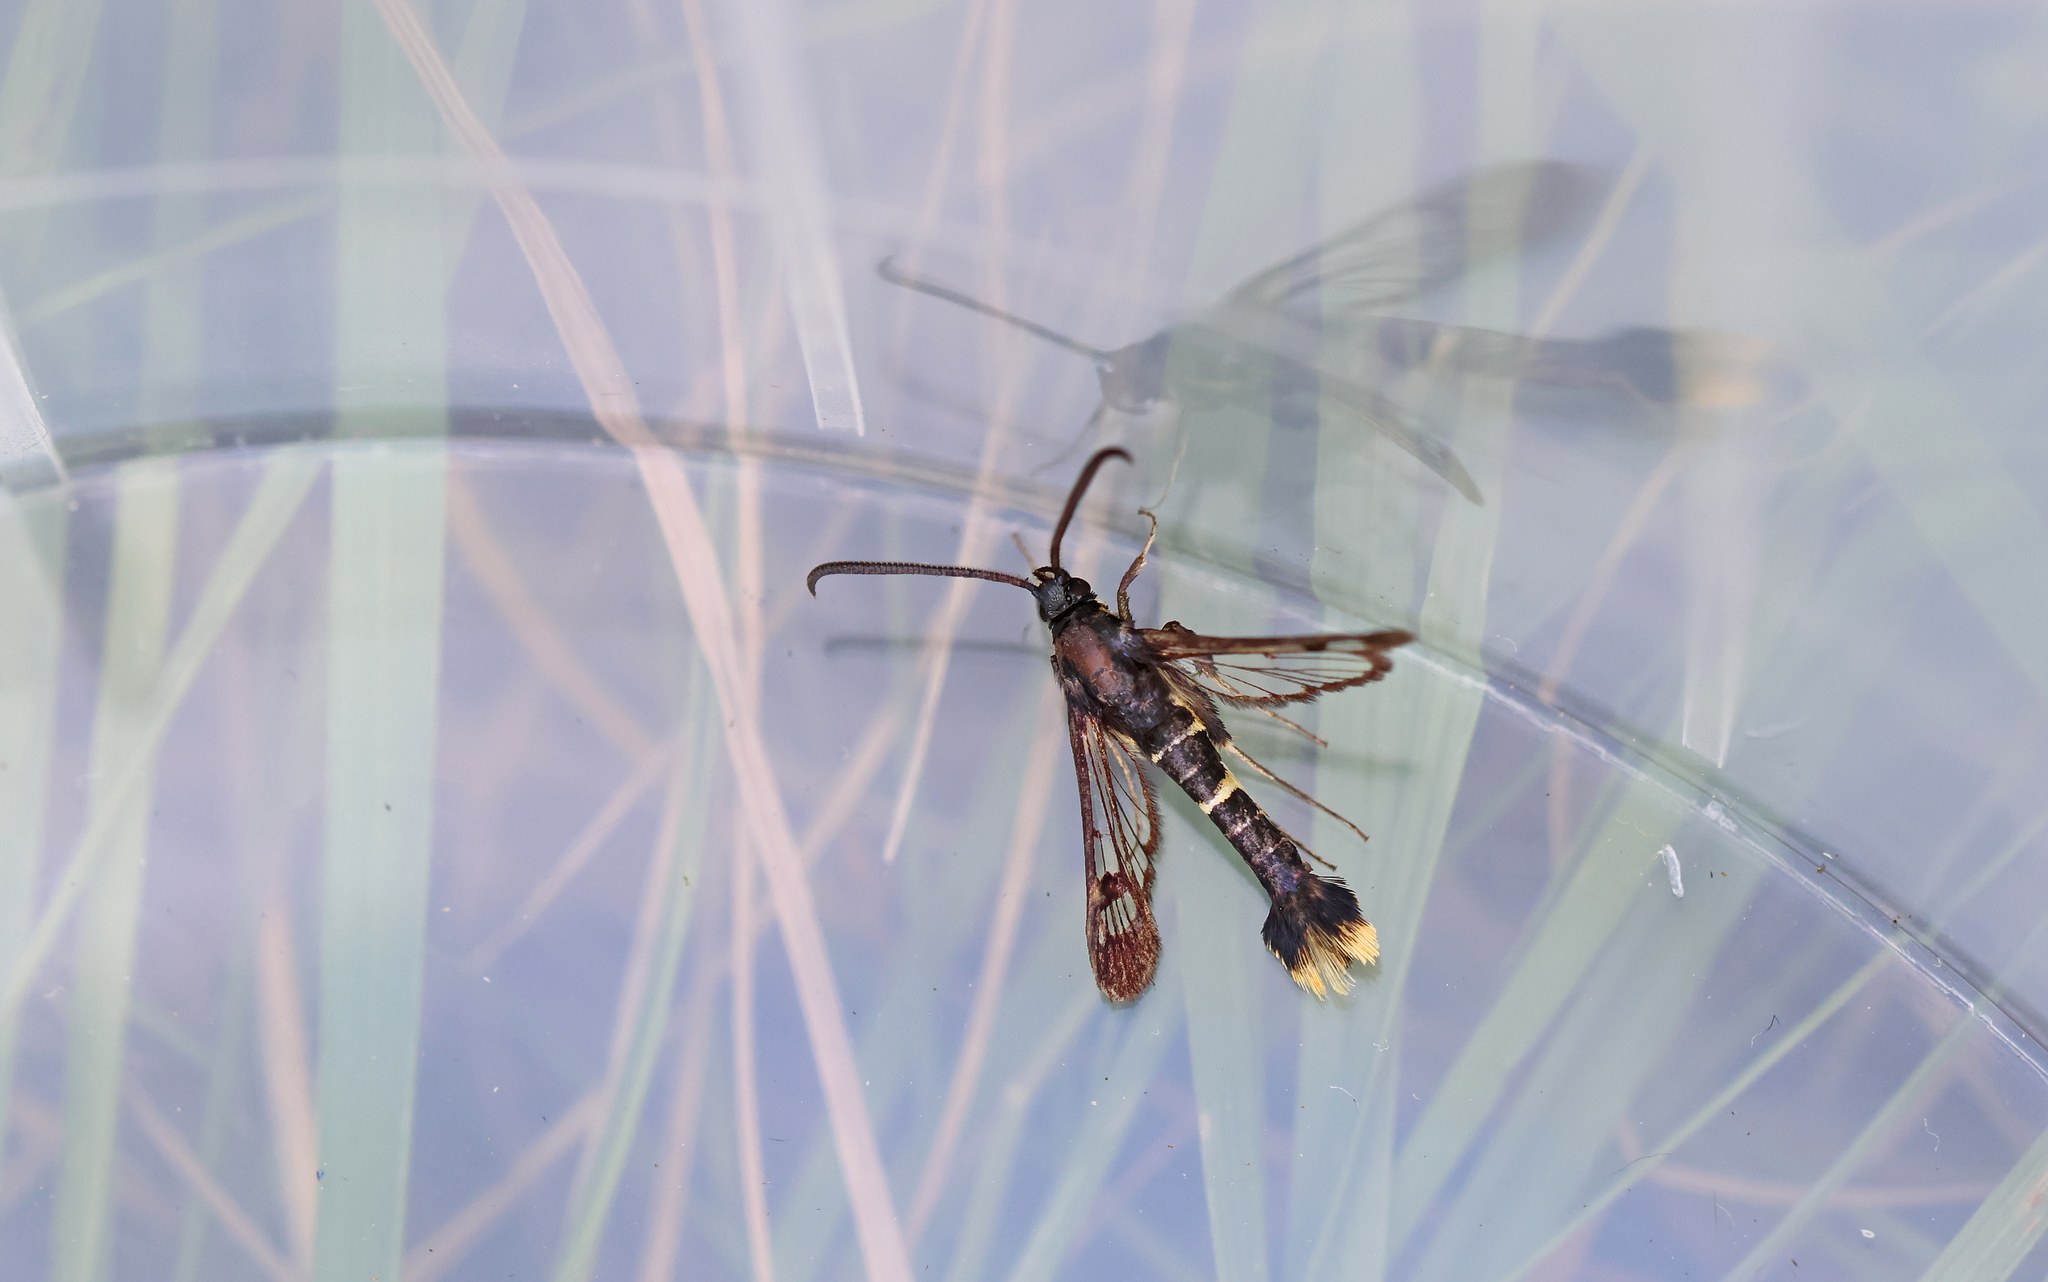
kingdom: Animalia
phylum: Arthropoda
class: Insecta
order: Lepidoptera
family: Sesiidae
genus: Synanthedon
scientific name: Synanthedon andrenaeformis
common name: Orange-tailed clearwing
